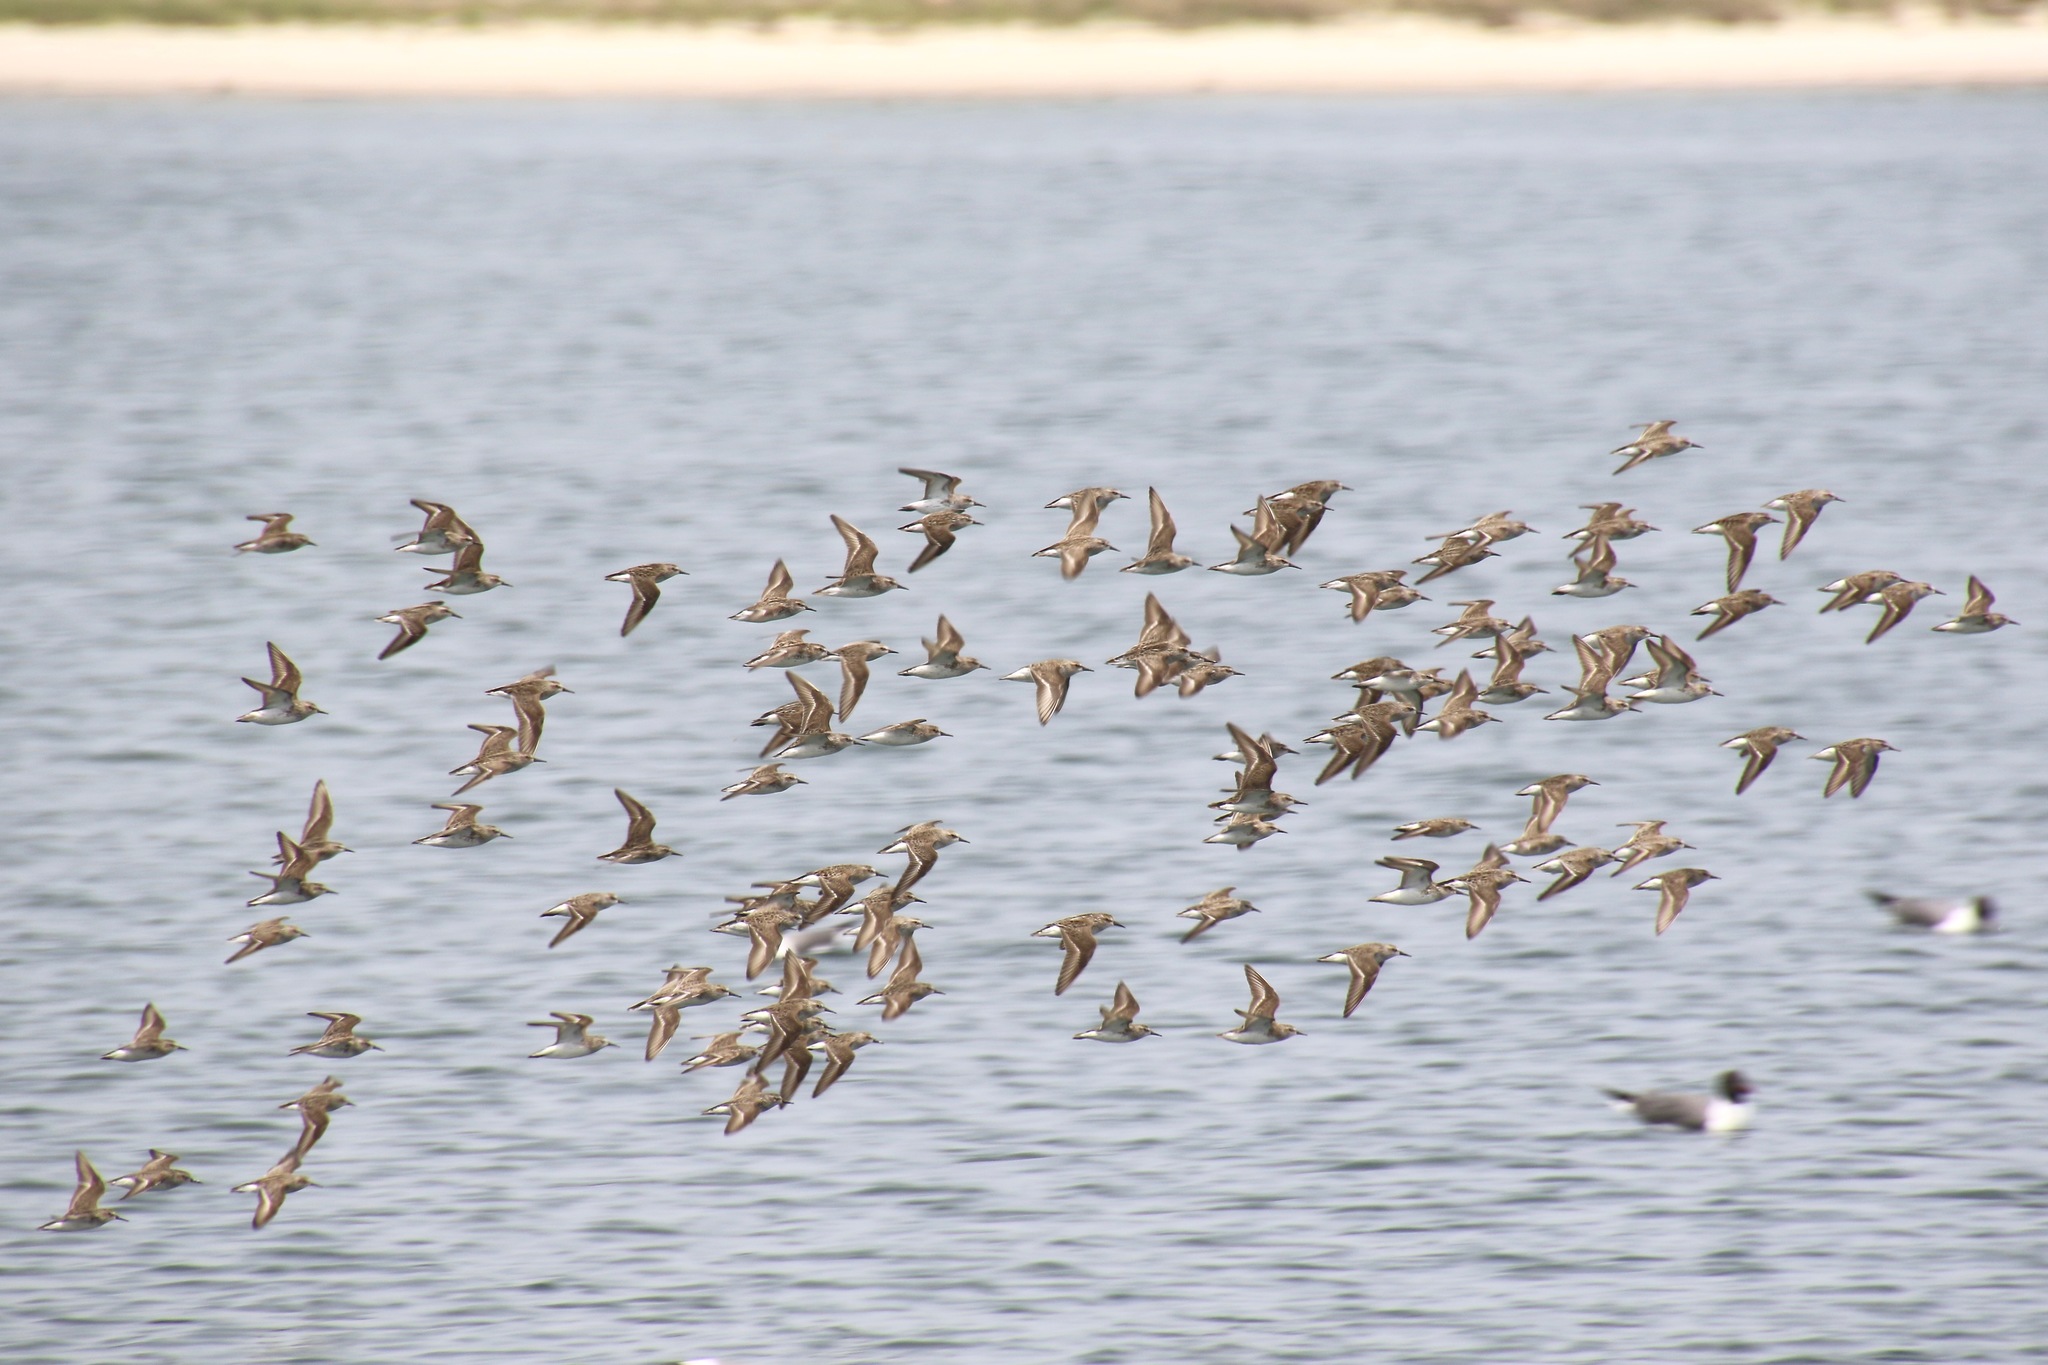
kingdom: Animalia
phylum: Chordata
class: Aves
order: Charadriiformes
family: Scolopacidae
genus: Calidris
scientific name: Calidris pusilla
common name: Semipalmated sandpiper
